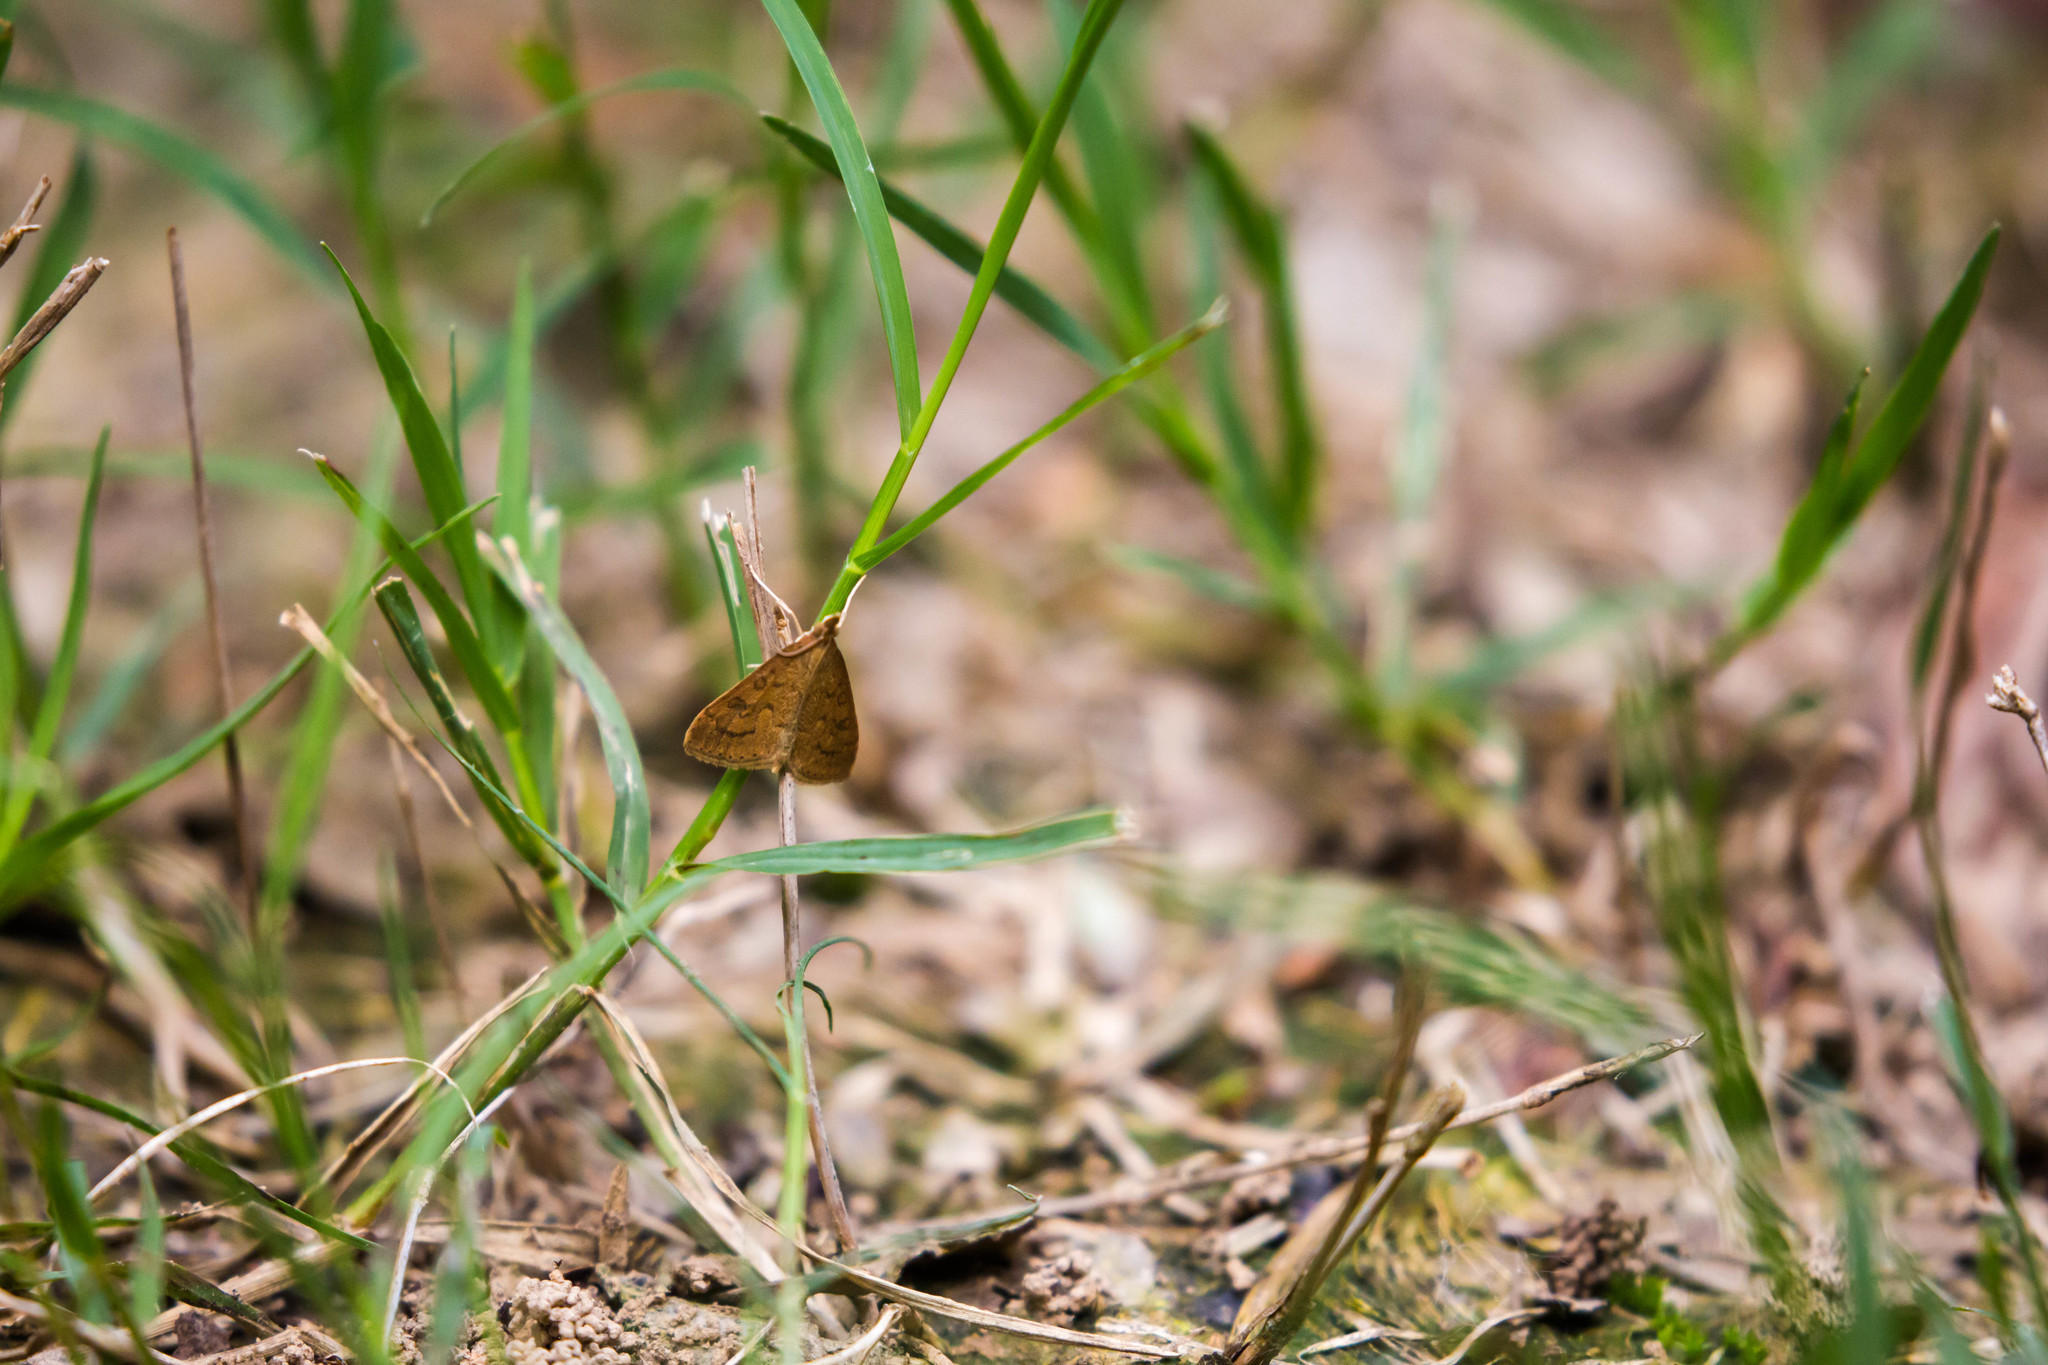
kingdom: Animalia
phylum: Arthropoda
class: Insecta
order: Lepidoptera
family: Crambidae
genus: Udea
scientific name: Udea rubigalis
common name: Celery leaftier moth
